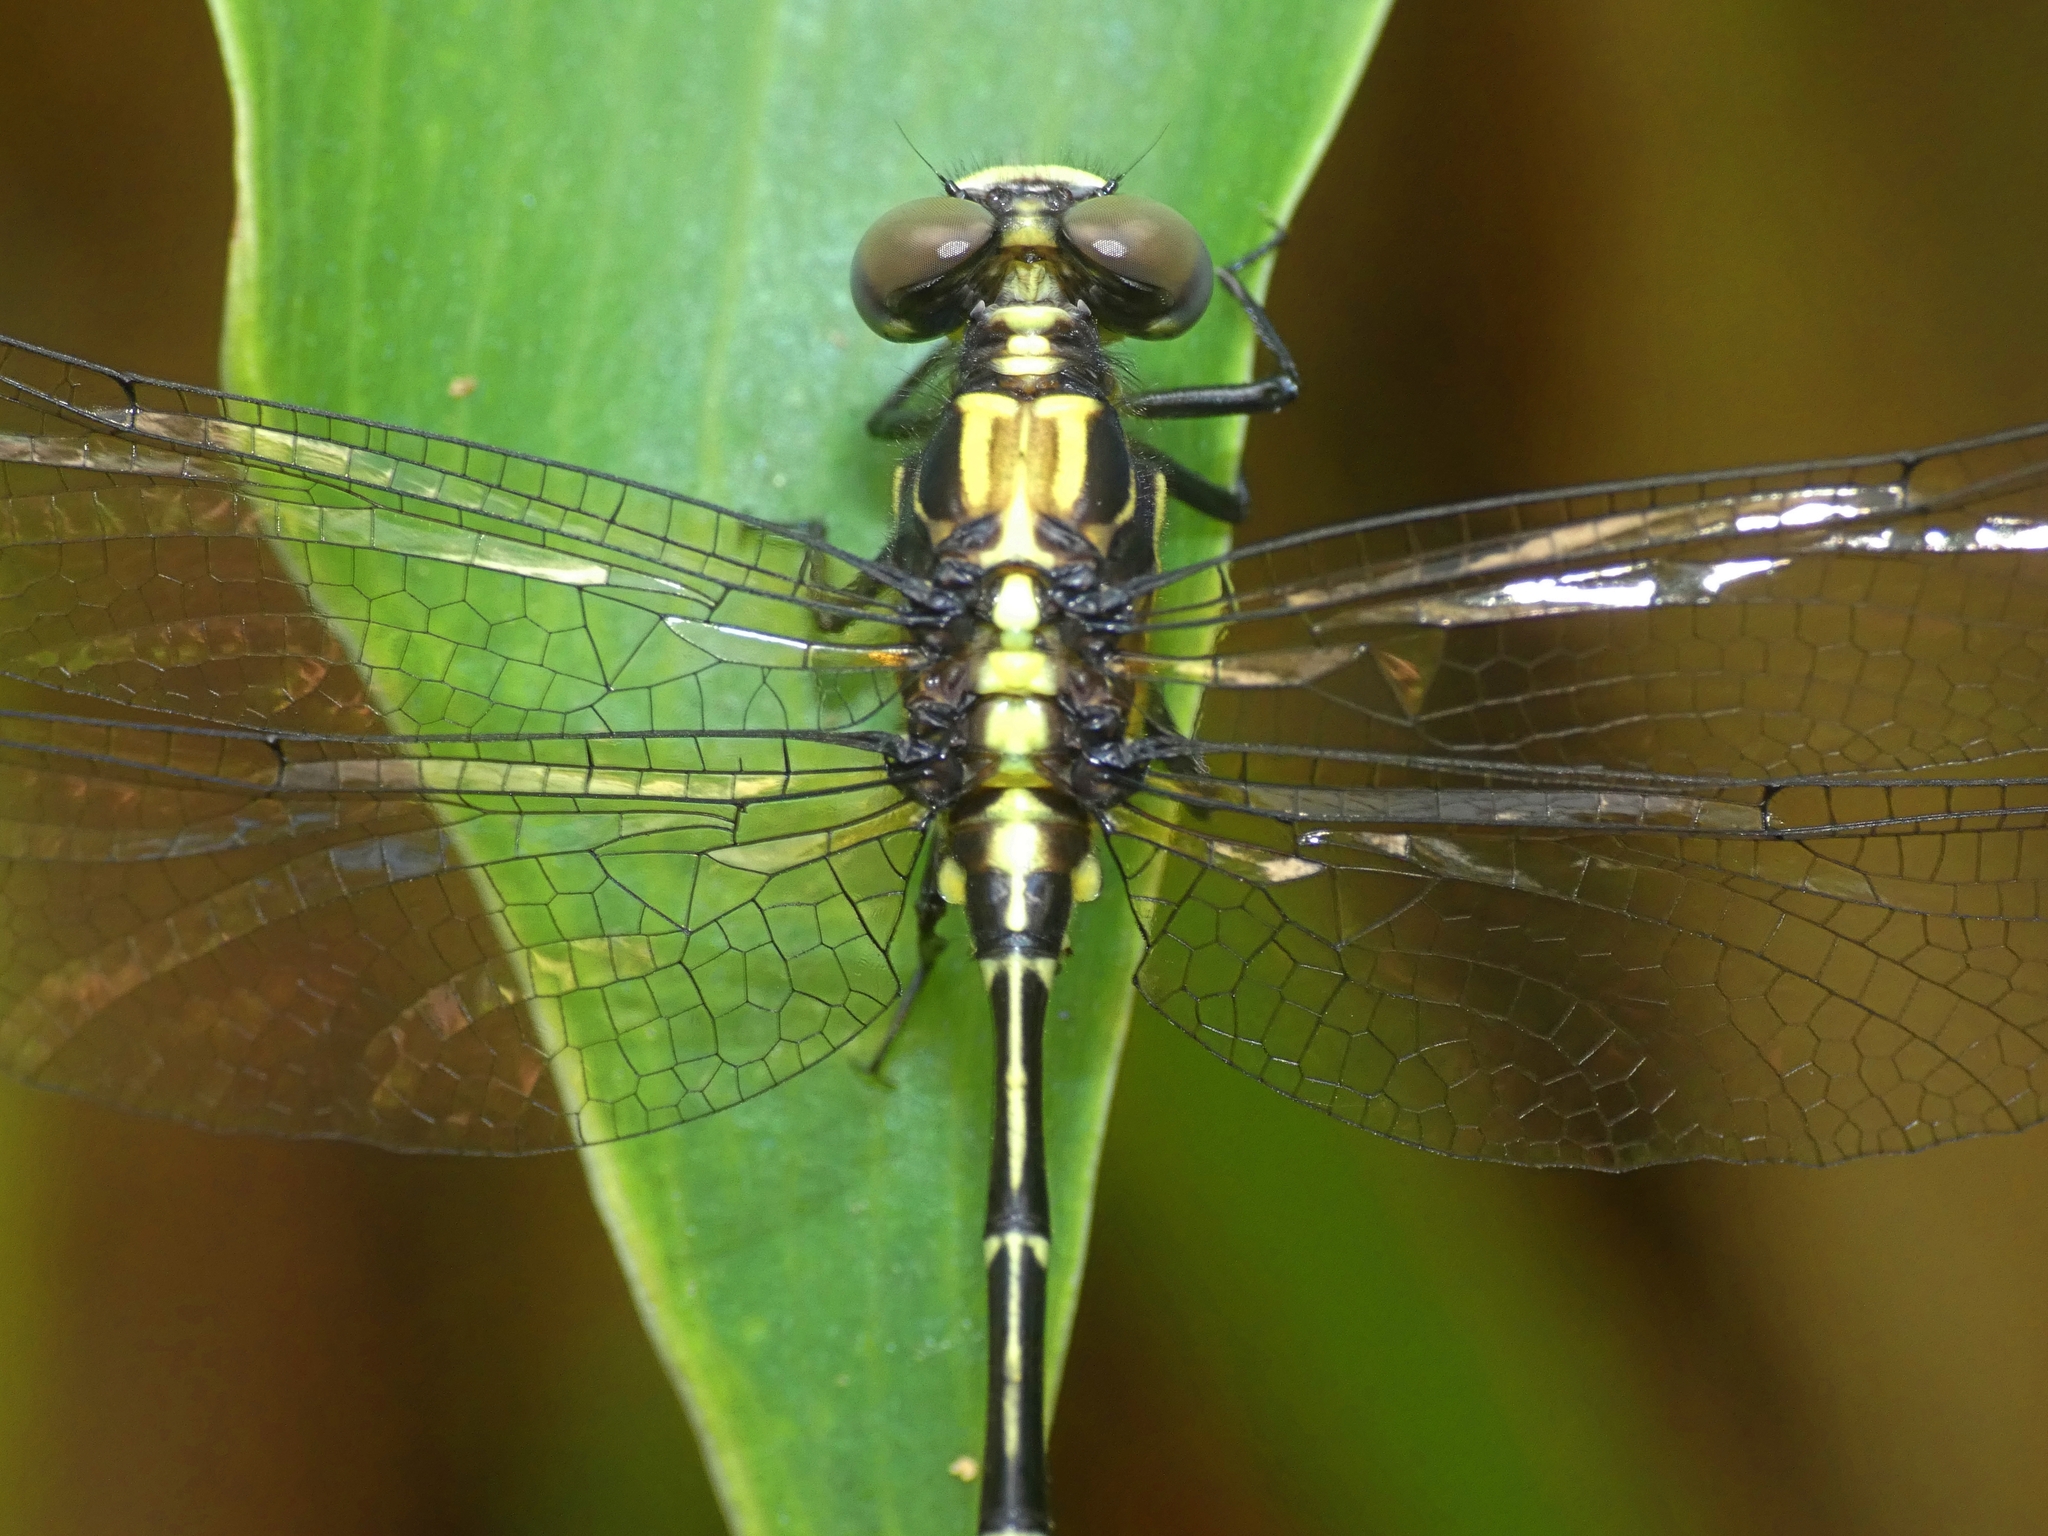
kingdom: Animalia
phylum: Arthropoda
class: Insecta
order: Odonata
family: Gomphidae
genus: Austrogomphus
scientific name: Austrogomphus prasinus
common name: Lemon-tipped hunter
